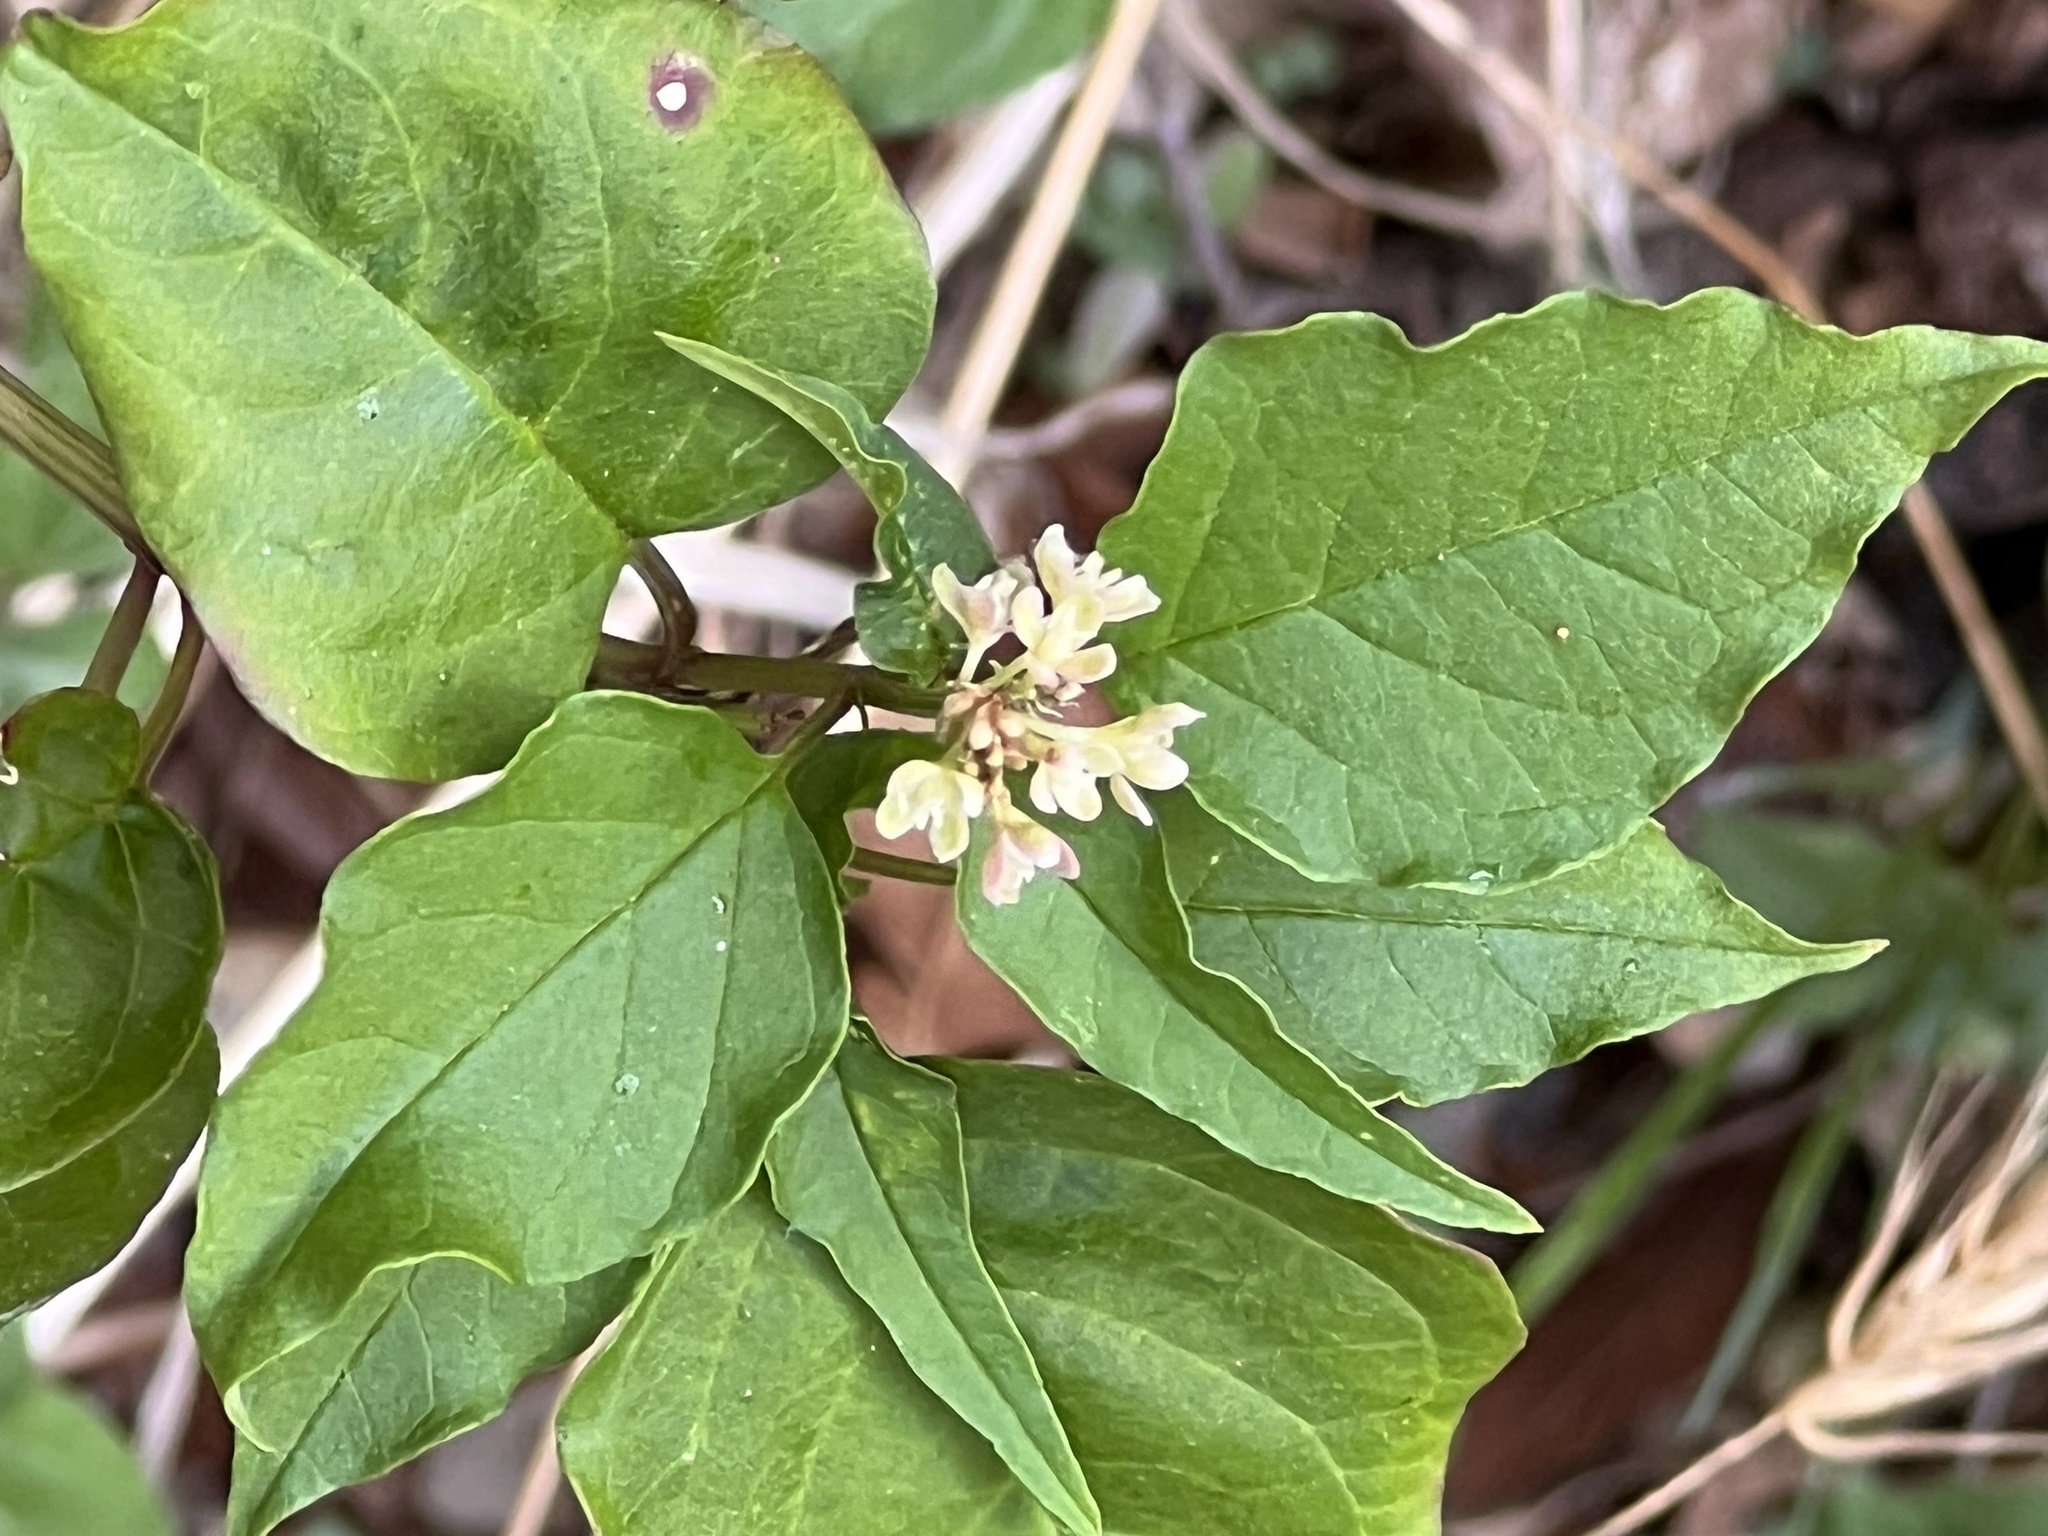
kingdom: Plantae
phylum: Tracheophyta
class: Magnoliopsida
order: Caryophyllales
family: Phytolaccaceae
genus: Rivina
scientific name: Rivina humilis
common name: Rougeplant
